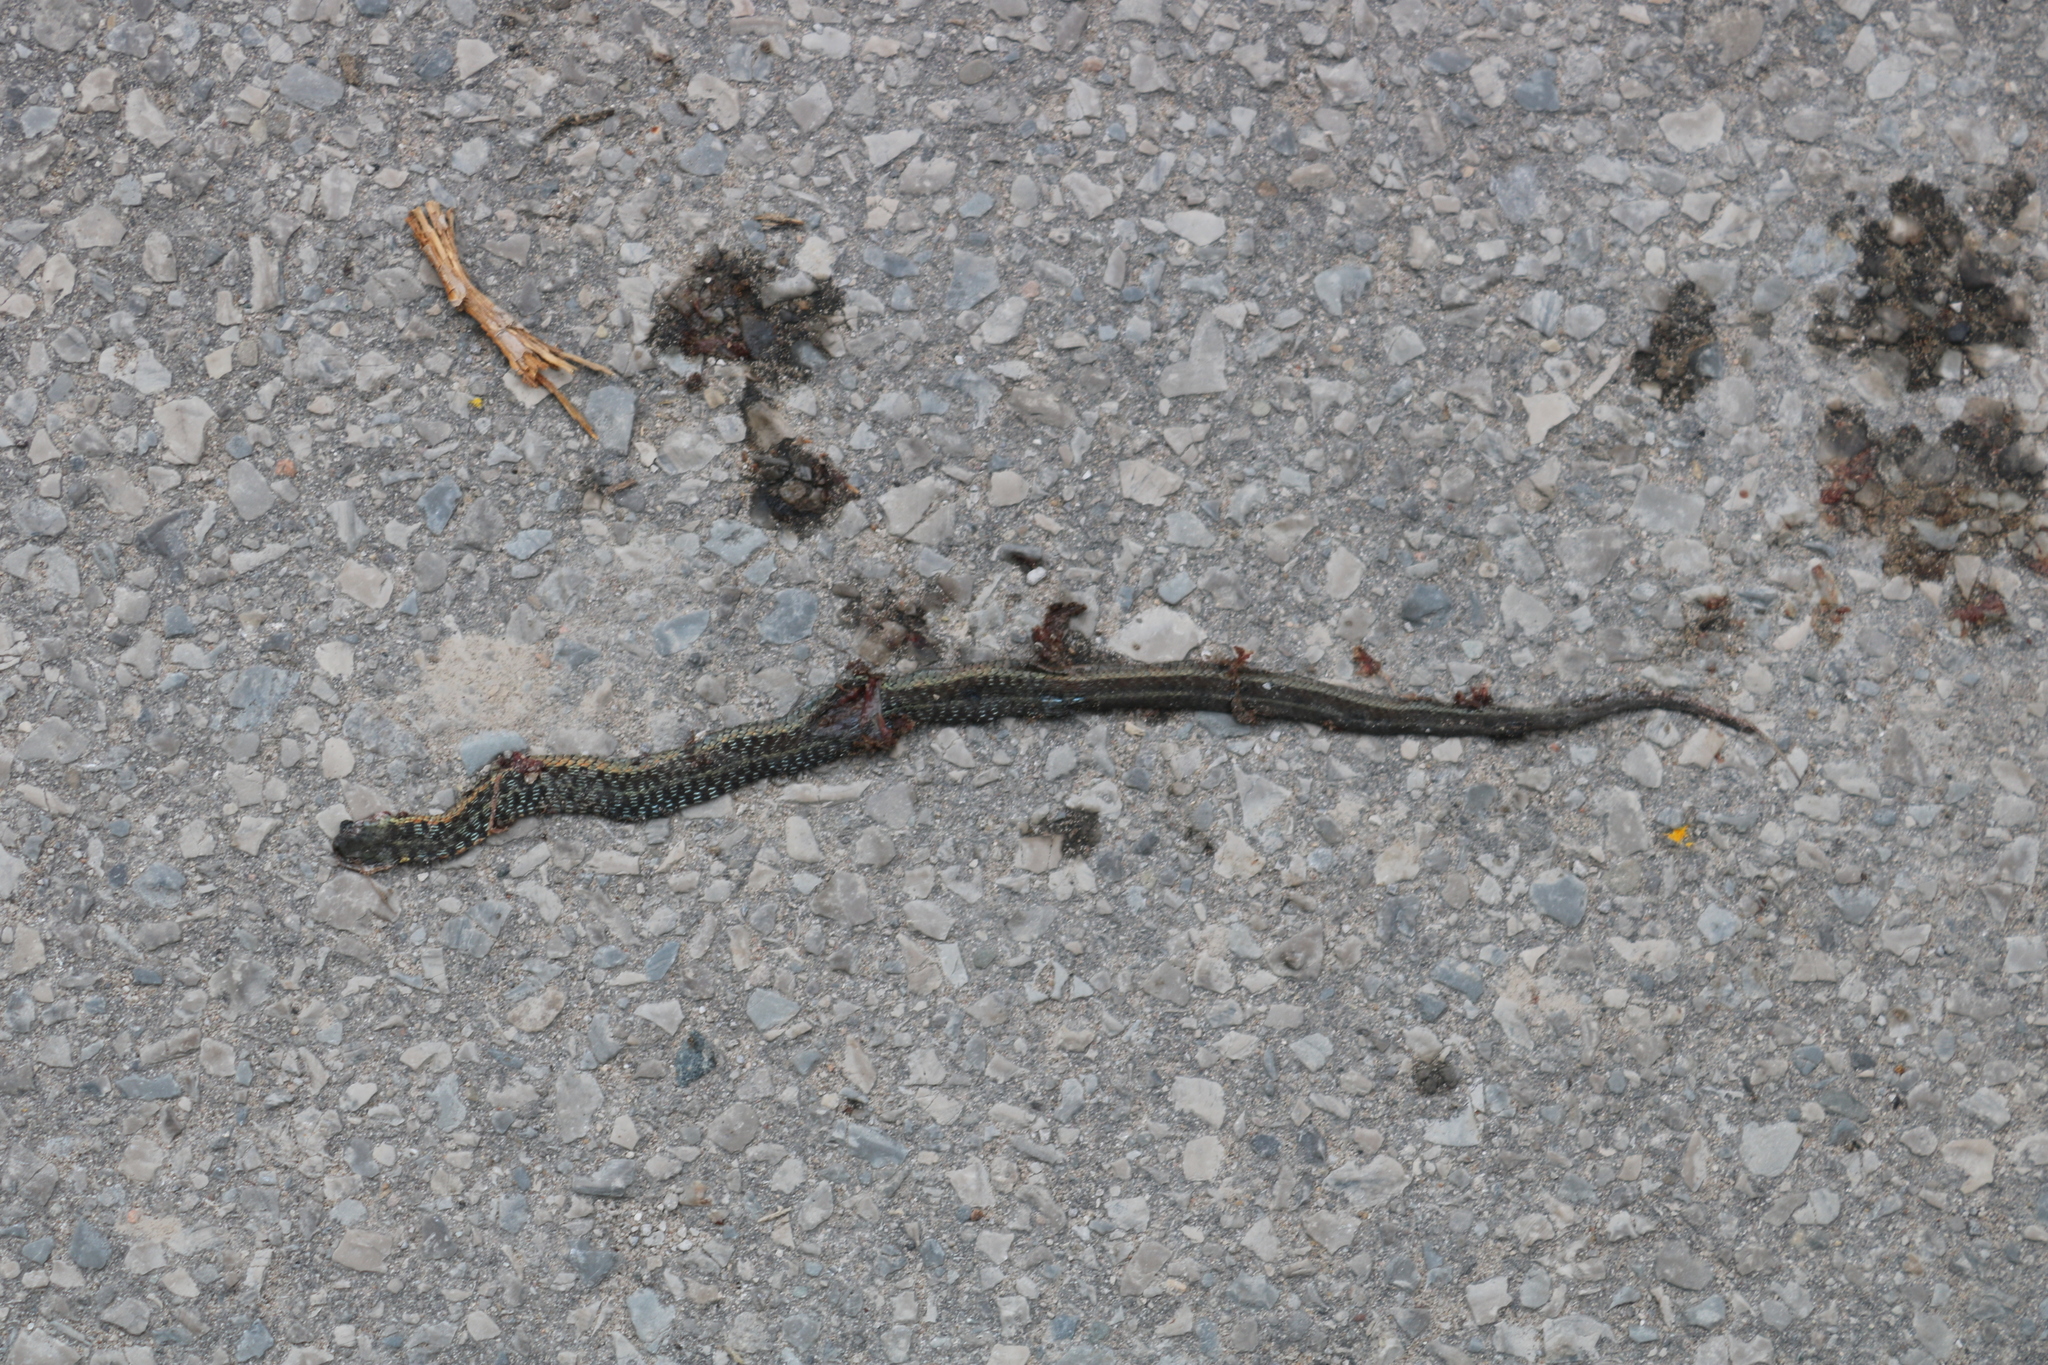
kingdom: Animalia
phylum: Chordata
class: Squamata
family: Colubridae
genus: Thamnophis
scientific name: Thamnophis sirtalis
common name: Common garter snake
